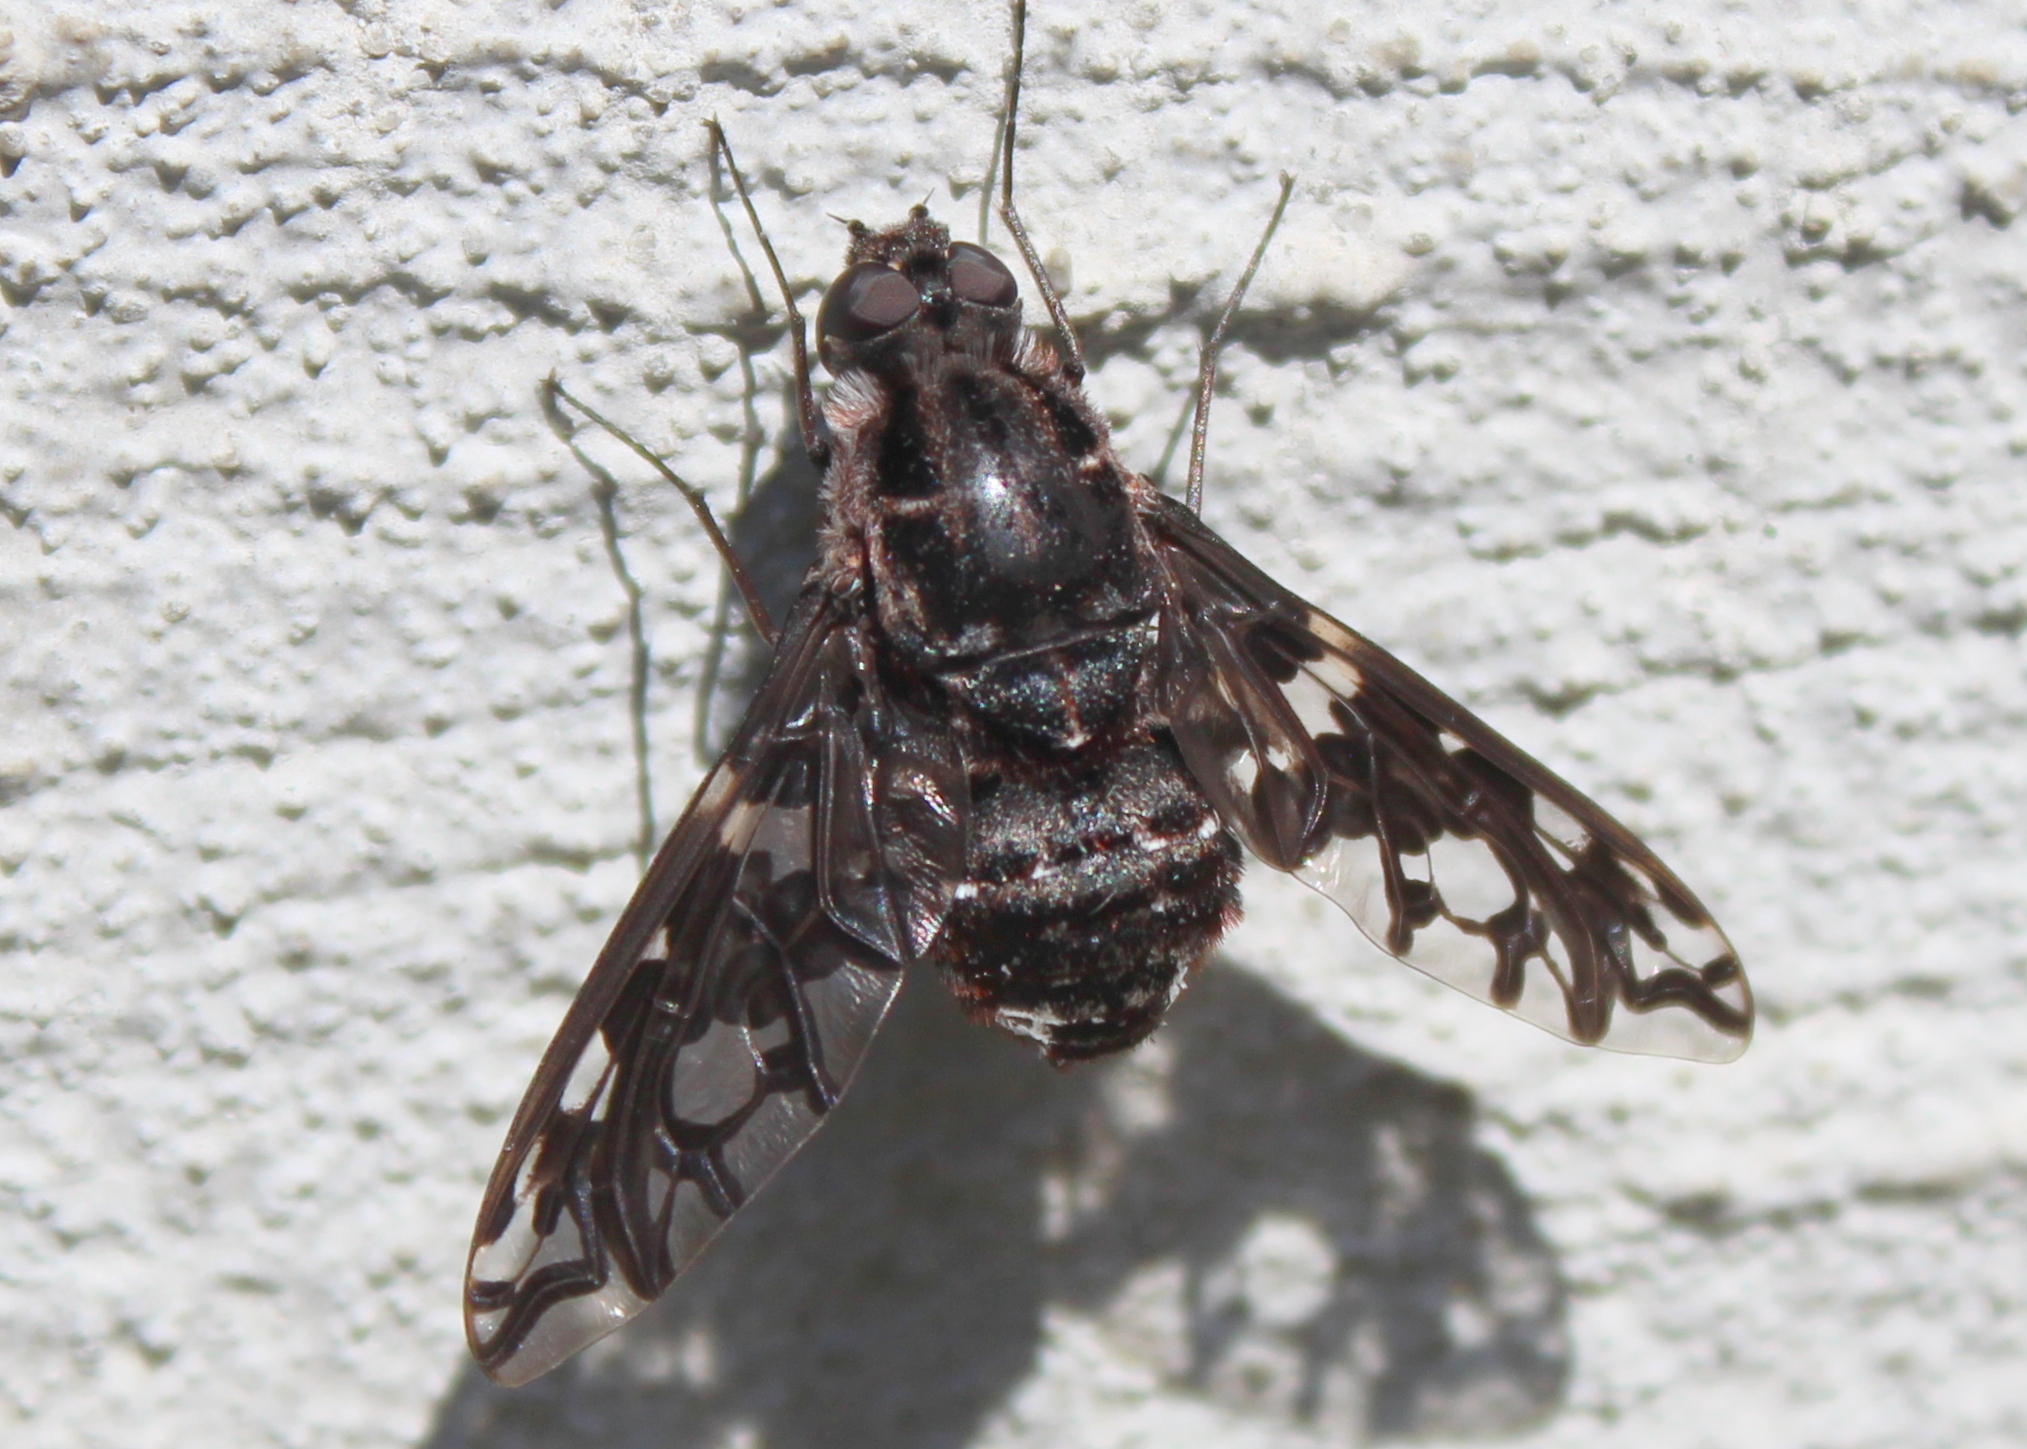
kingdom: Animalia
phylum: Arthropoda
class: Insecta
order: Diptera
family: Bombyliidae
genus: Xenox
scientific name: Xenox tigrinus
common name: Tiger bee fly
